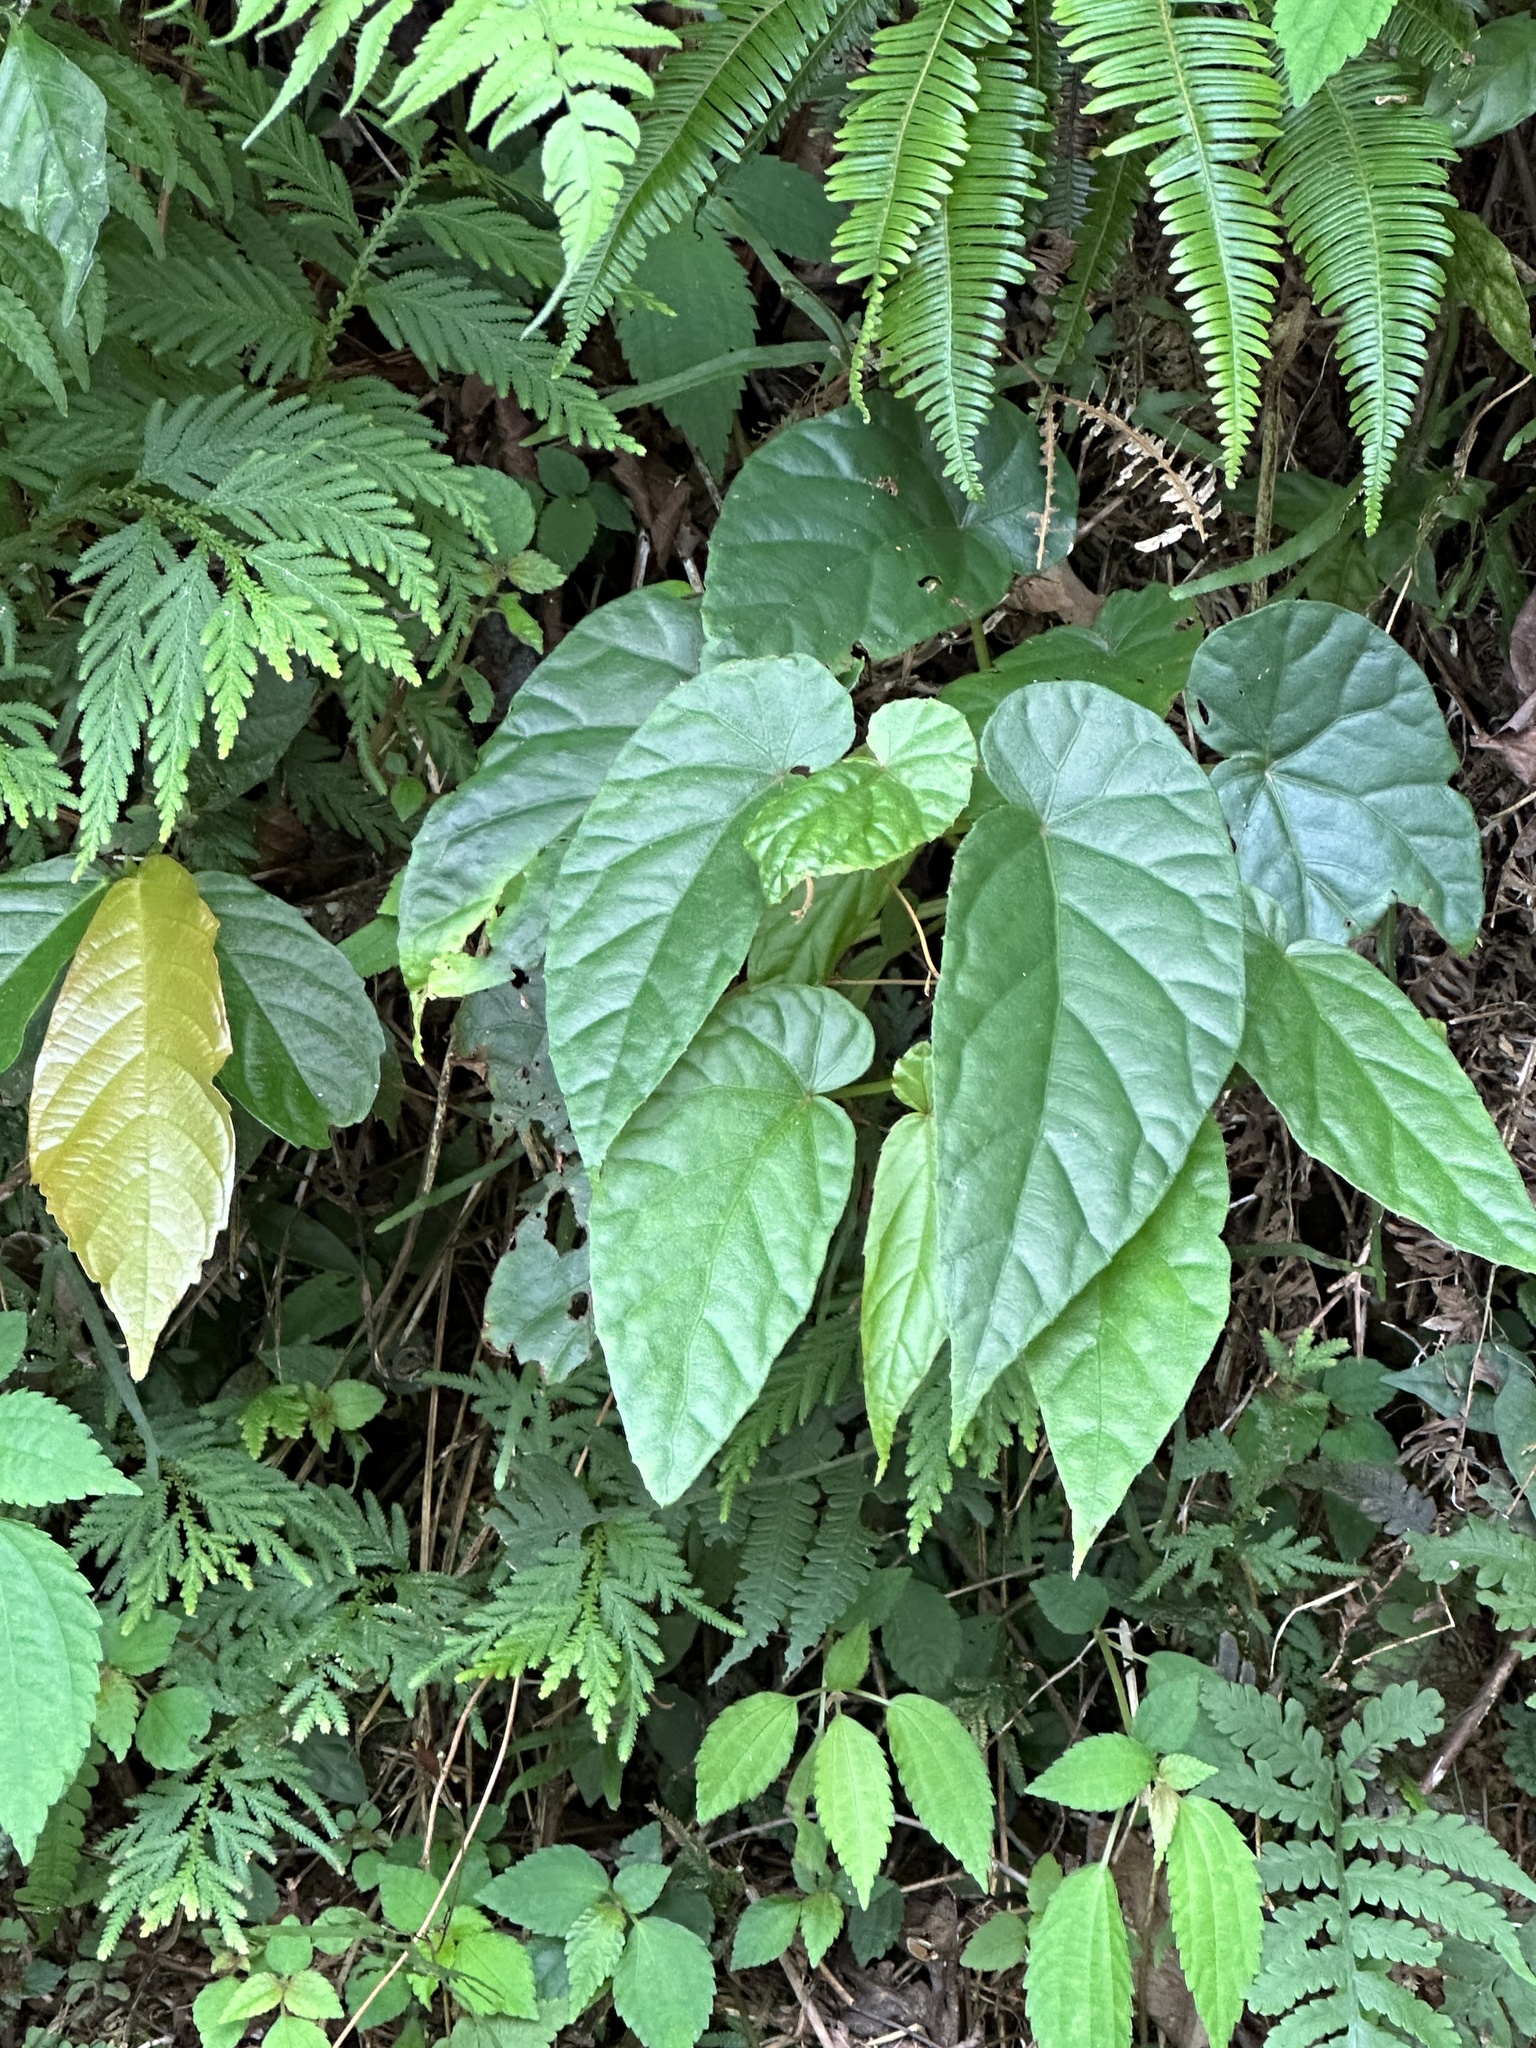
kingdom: Plantae
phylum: Tracheophyta
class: Magnoliopsida
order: Cucurbitales
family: Begoniaceae
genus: Begonia
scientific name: Begonia longifolia
